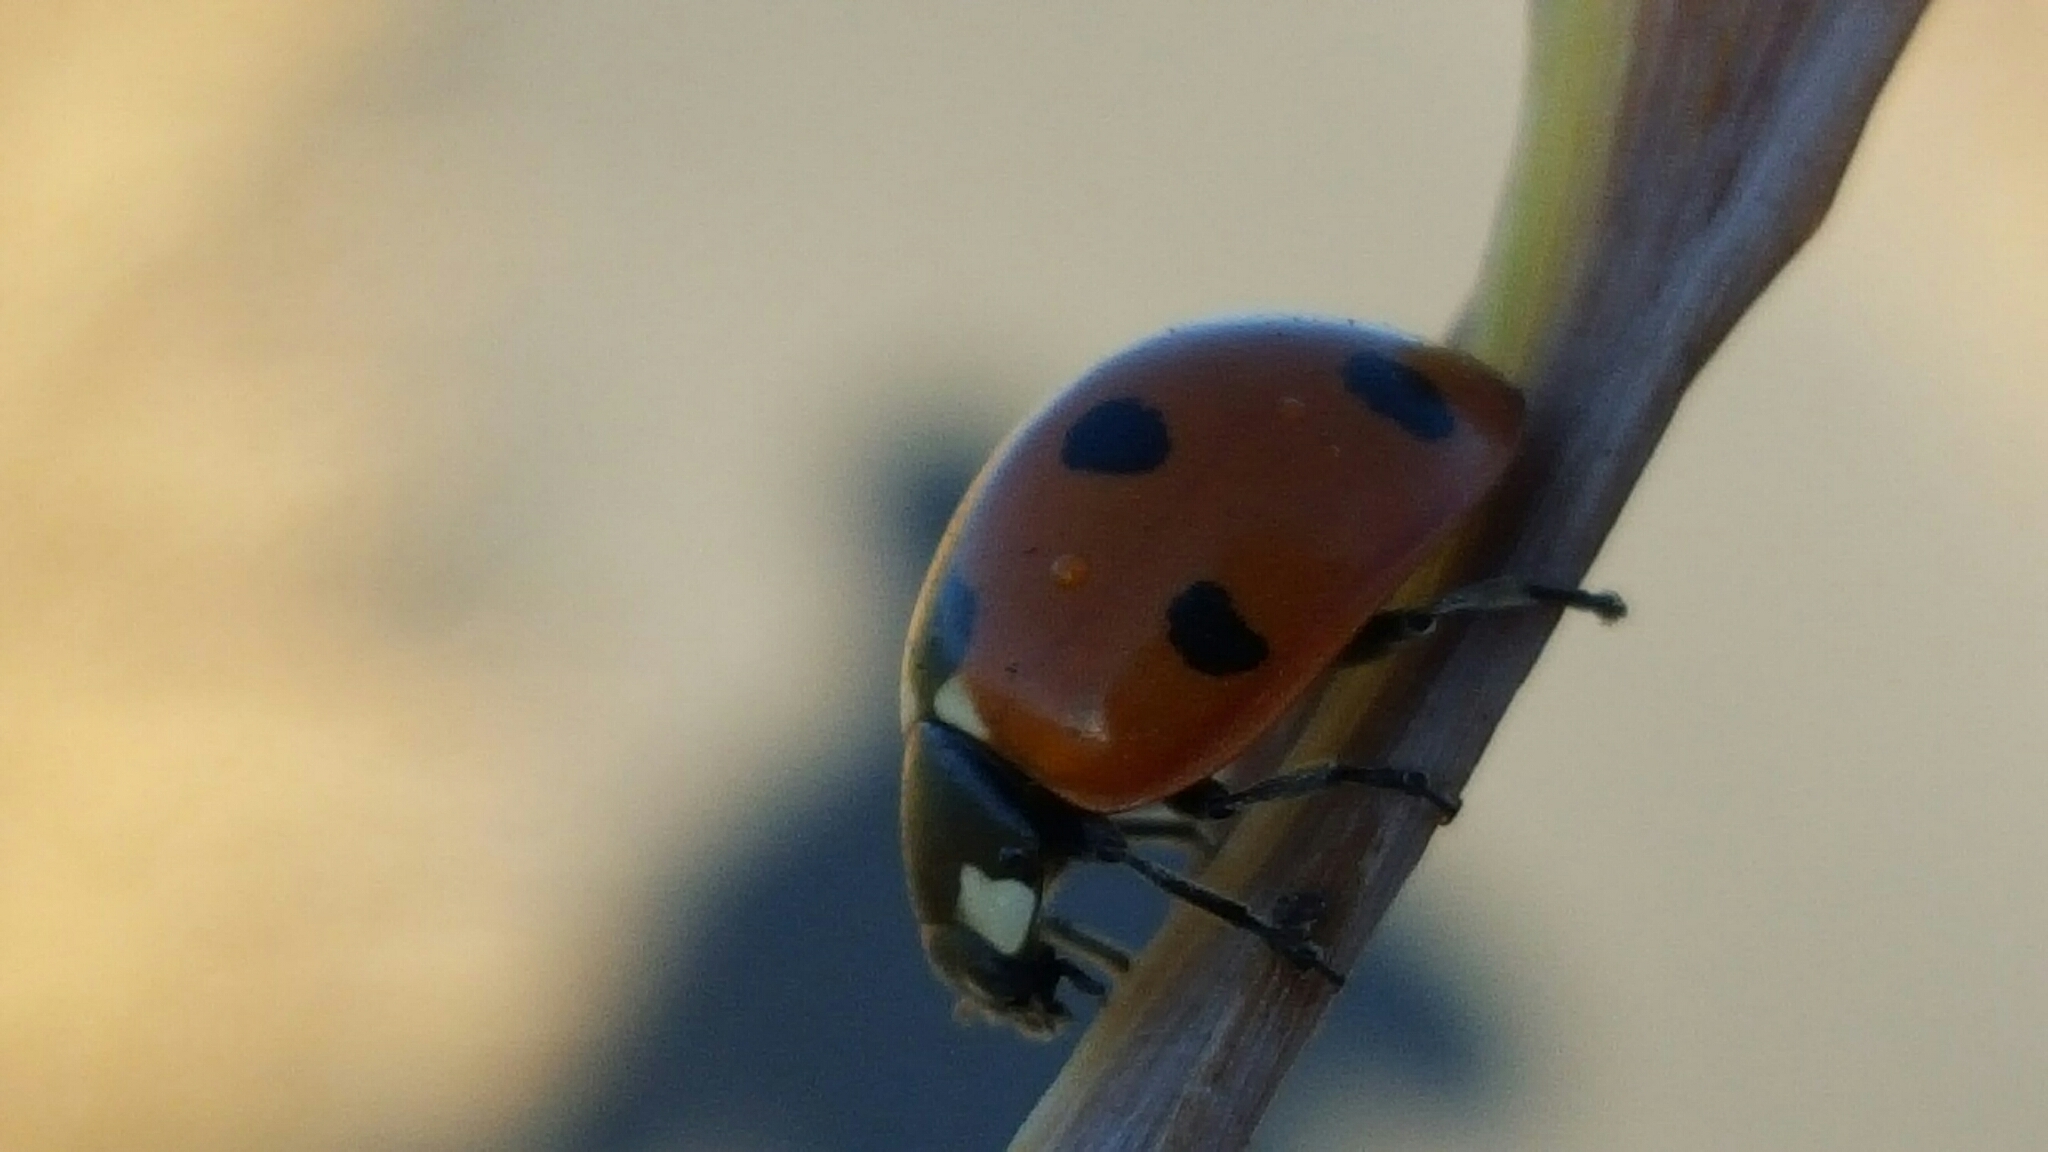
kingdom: Animalia
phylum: Arthropoda
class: Insecta
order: Coleoptera
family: Coccinellidae
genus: Coccinella
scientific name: Coccinella septempunctata
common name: Sevenspotted lady beetle
